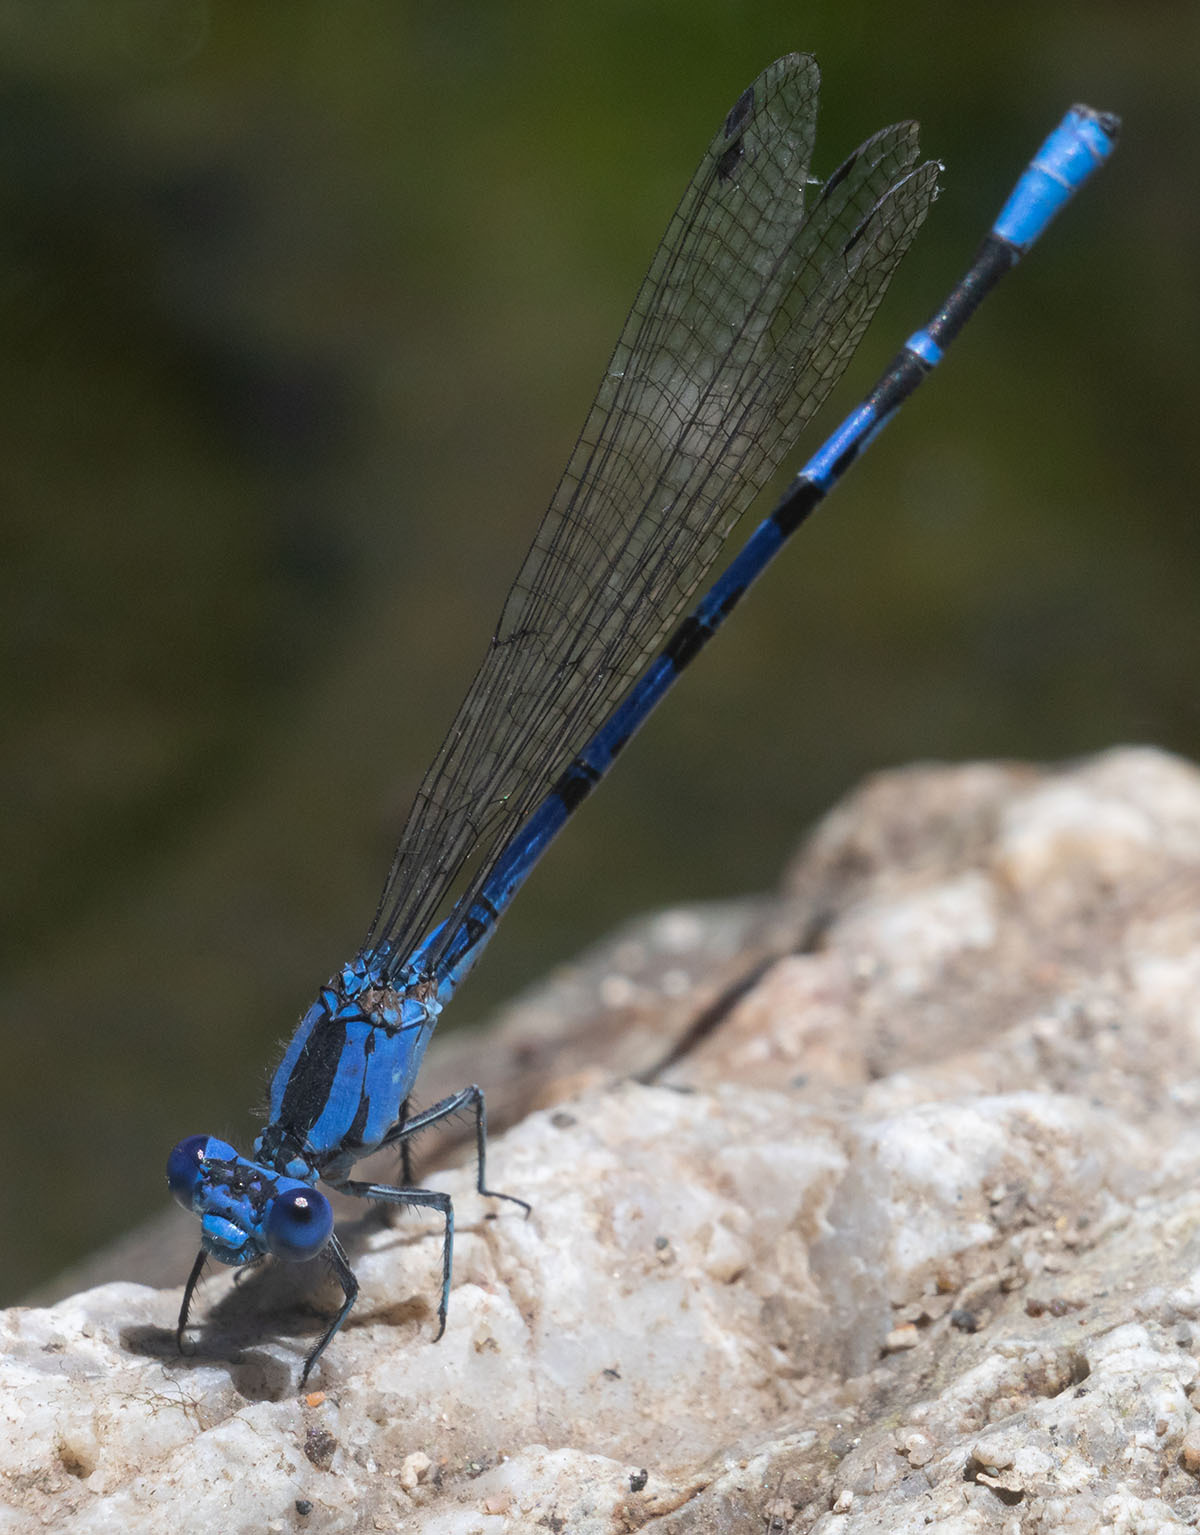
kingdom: Animalia
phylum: Arthropoda
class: Insecta
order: Odonata
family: Coenagrionidae
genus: Argia
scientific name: Argia vivida
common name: Vivid dancer
